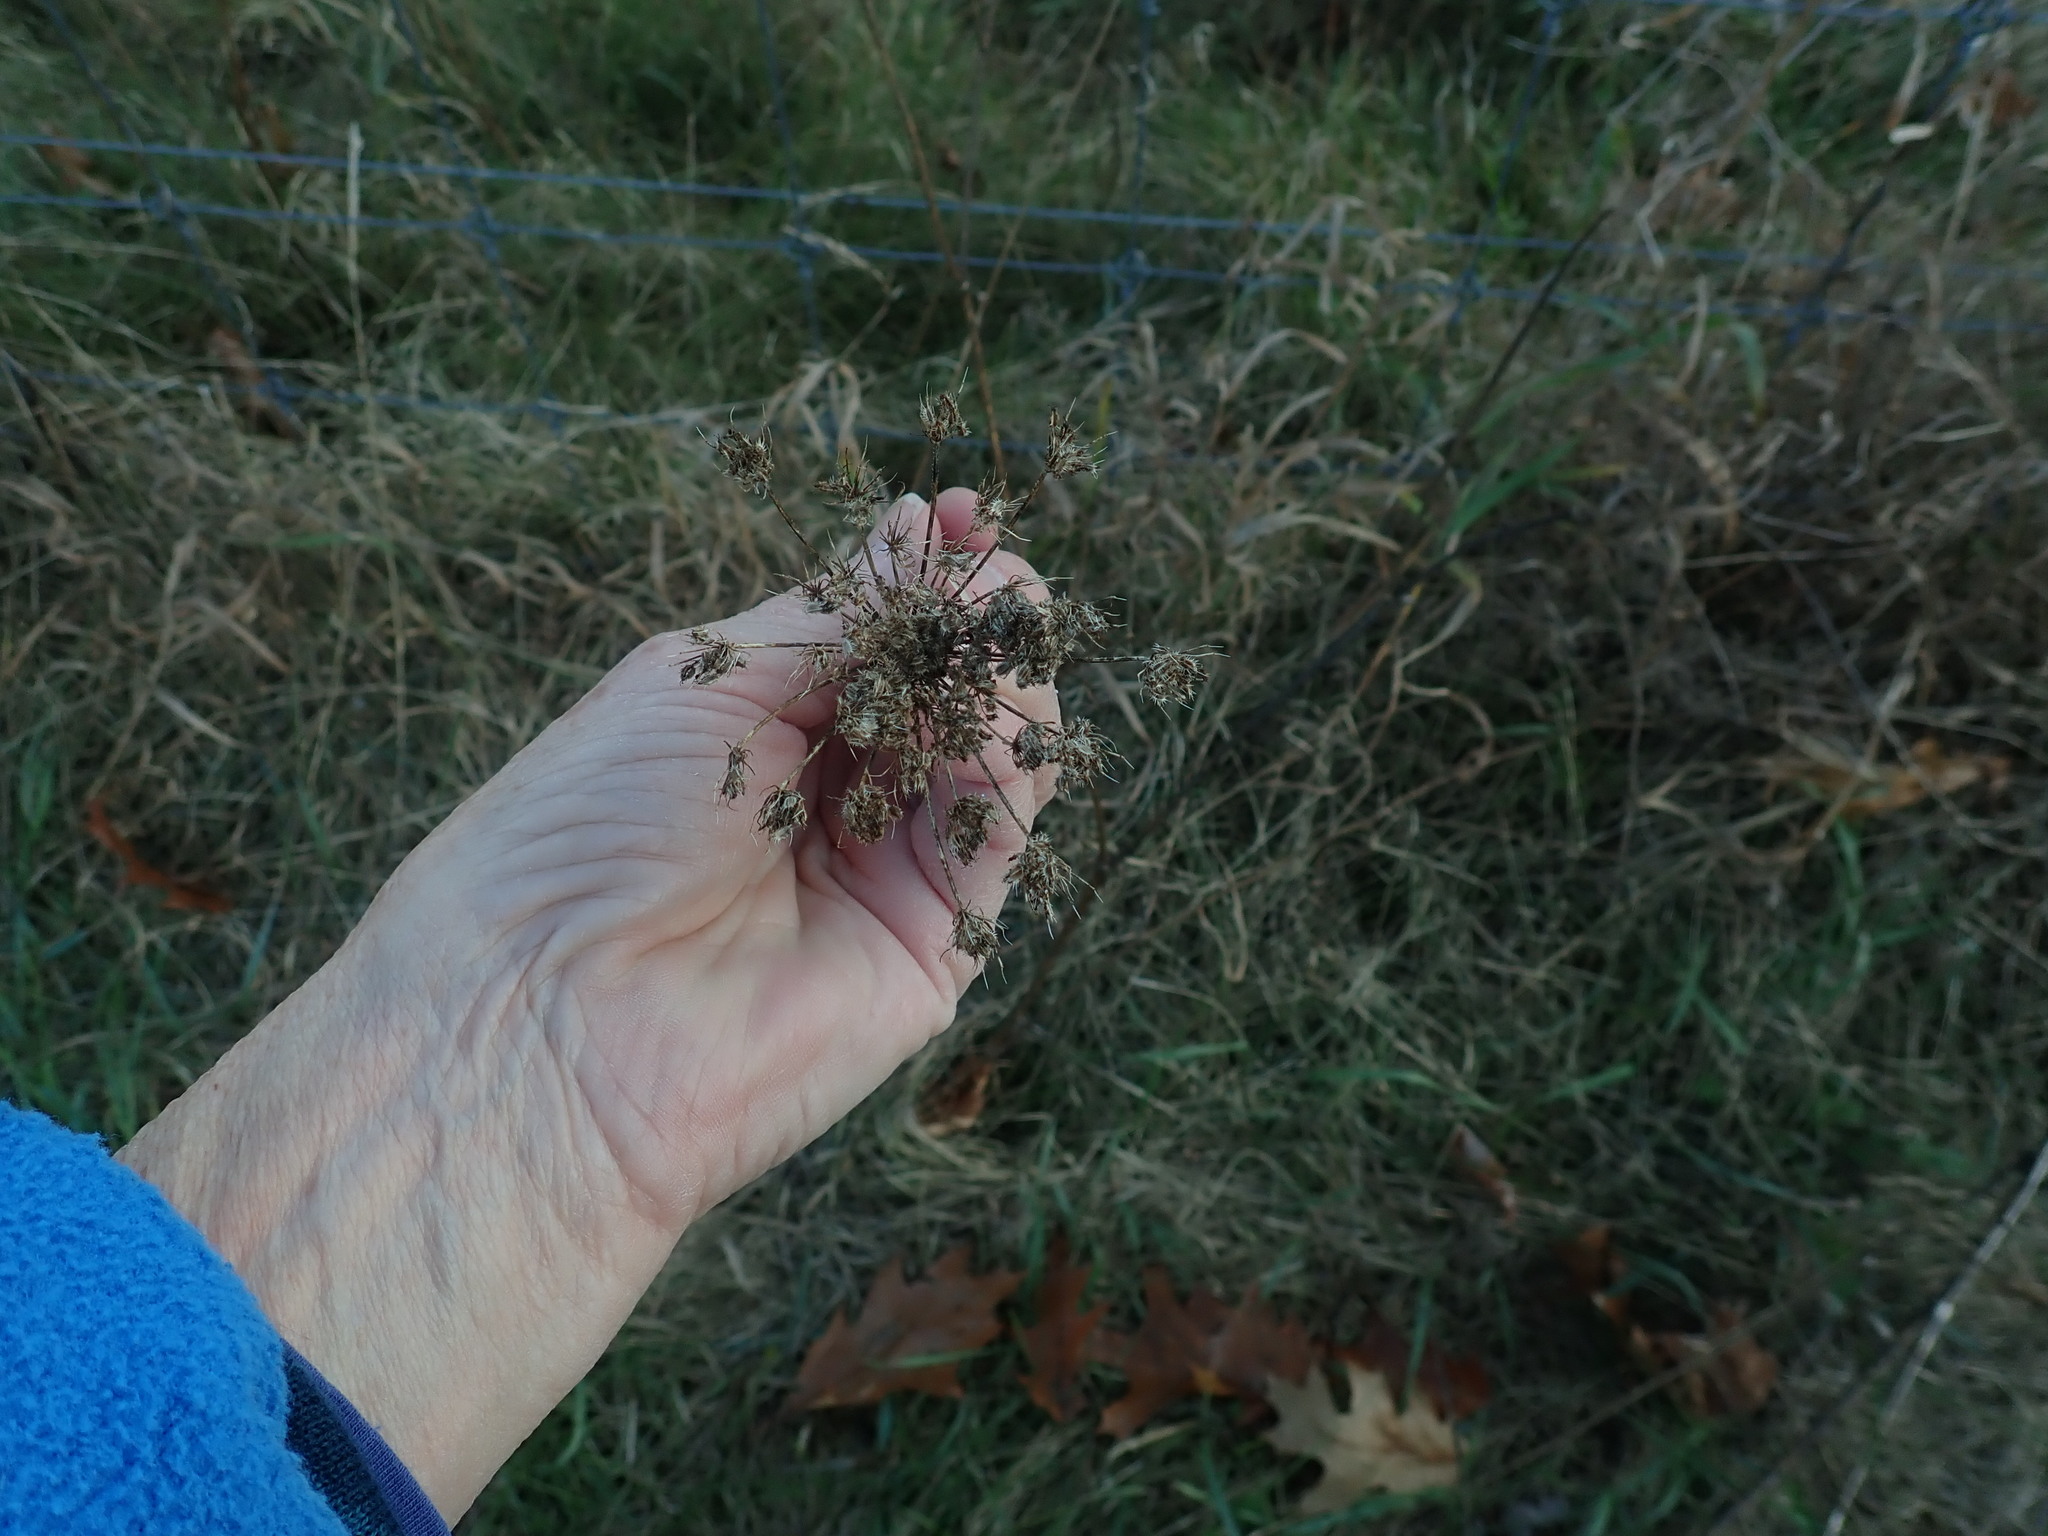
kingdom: Plantae
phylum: Tracheophyta
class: Magnoliopsida
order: Apiales
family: Apiaceae
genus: Daucus
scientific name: Daucus carota
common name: Wild carrot
